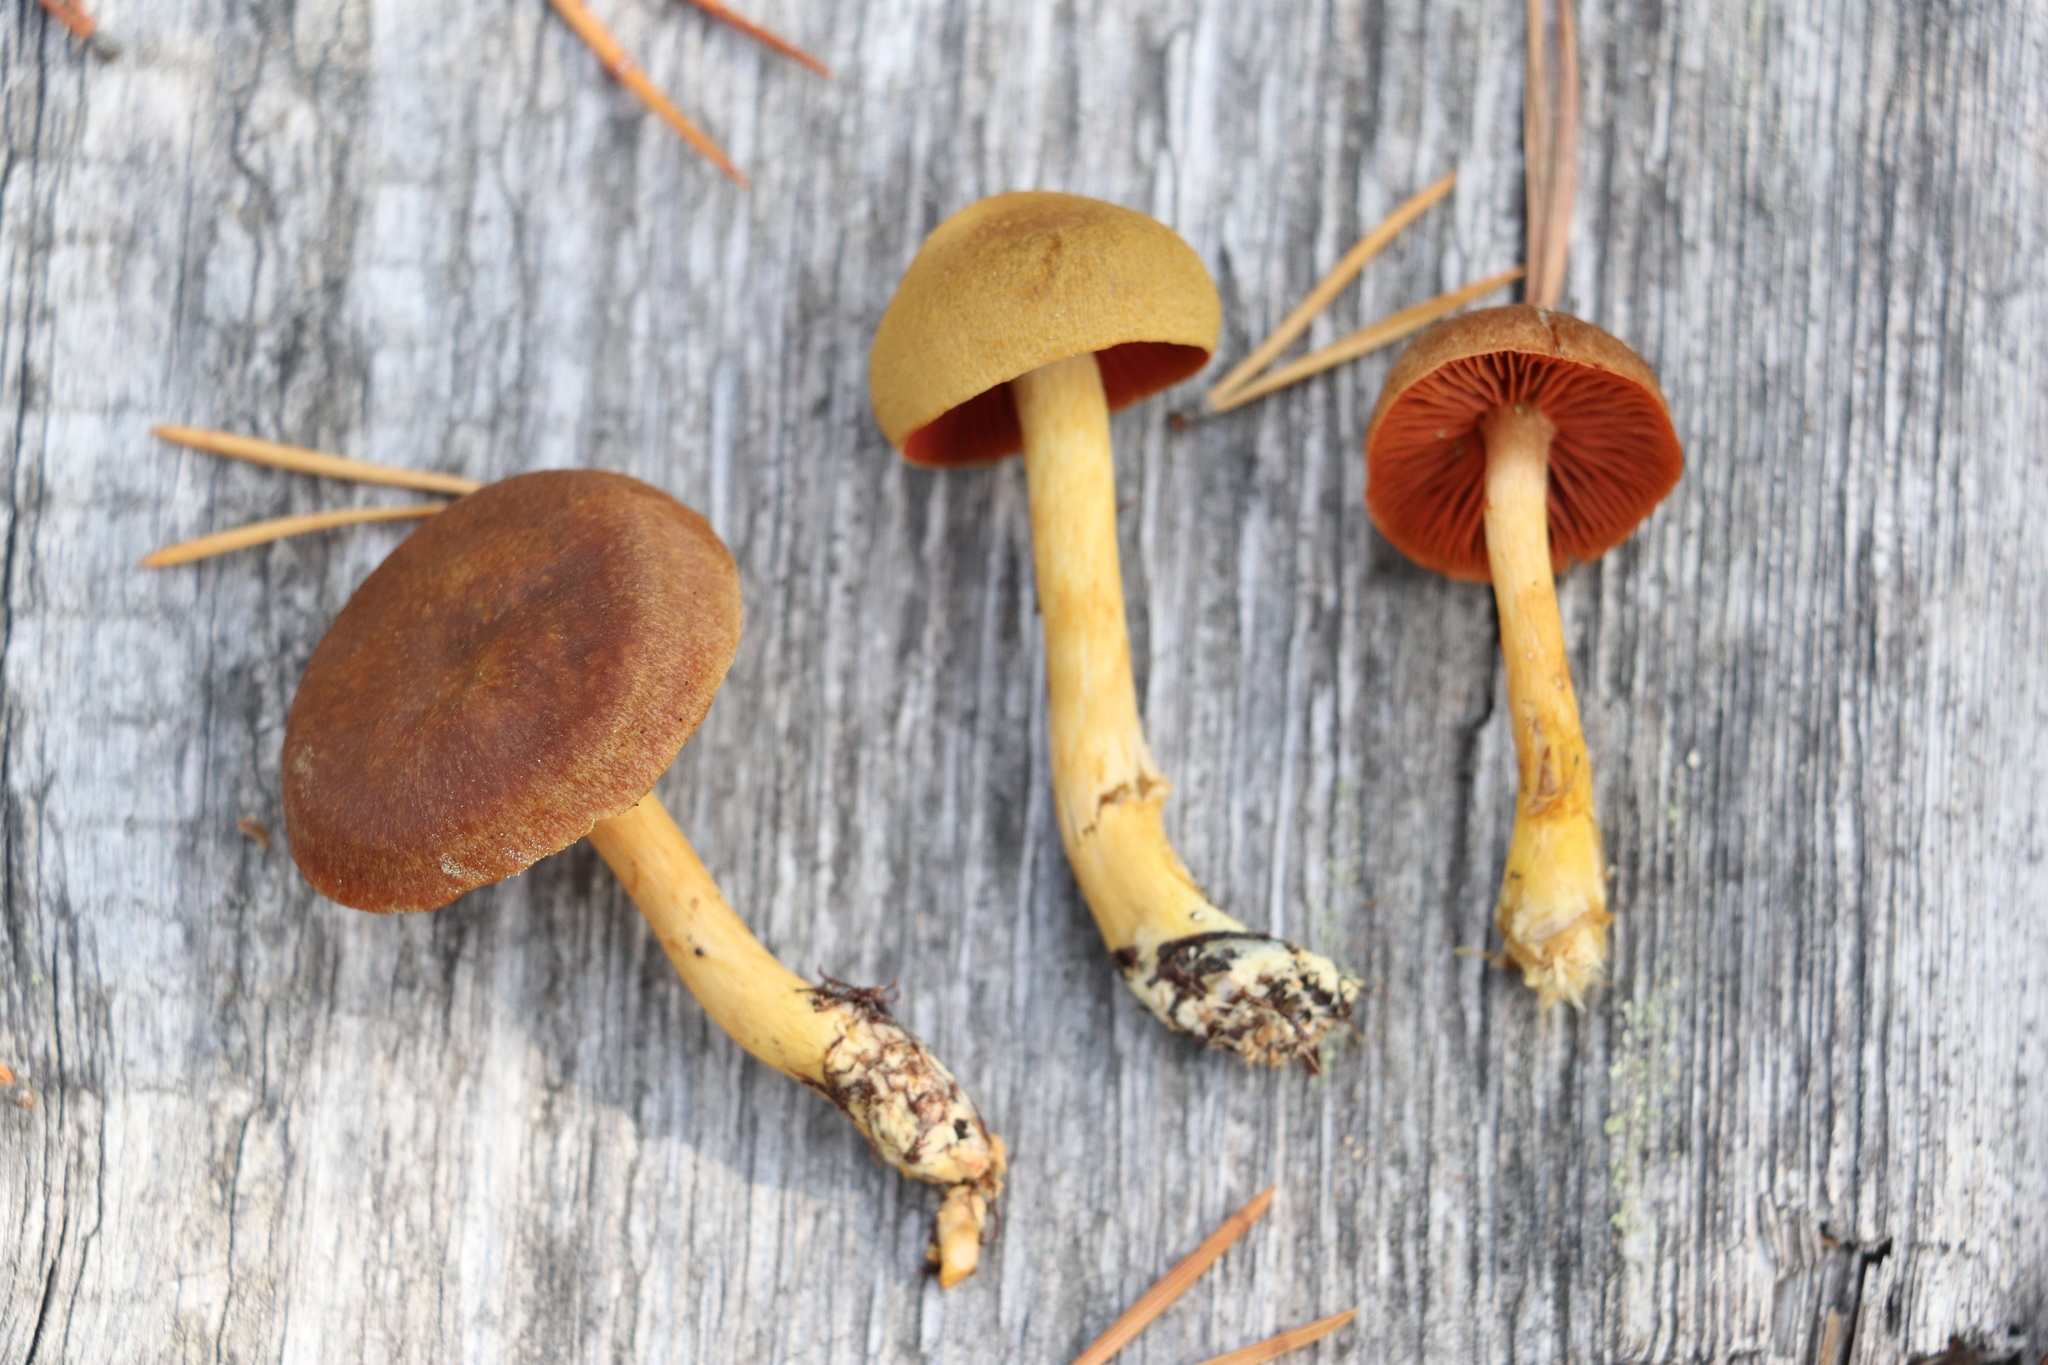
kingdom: Fungi
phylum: Basidiomycota
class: Agaricomycetes
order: Agaricales
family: Cortinariaceae
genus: Cortinarius
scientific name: Cortinarius semisanguineus
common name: Surprise webcap
